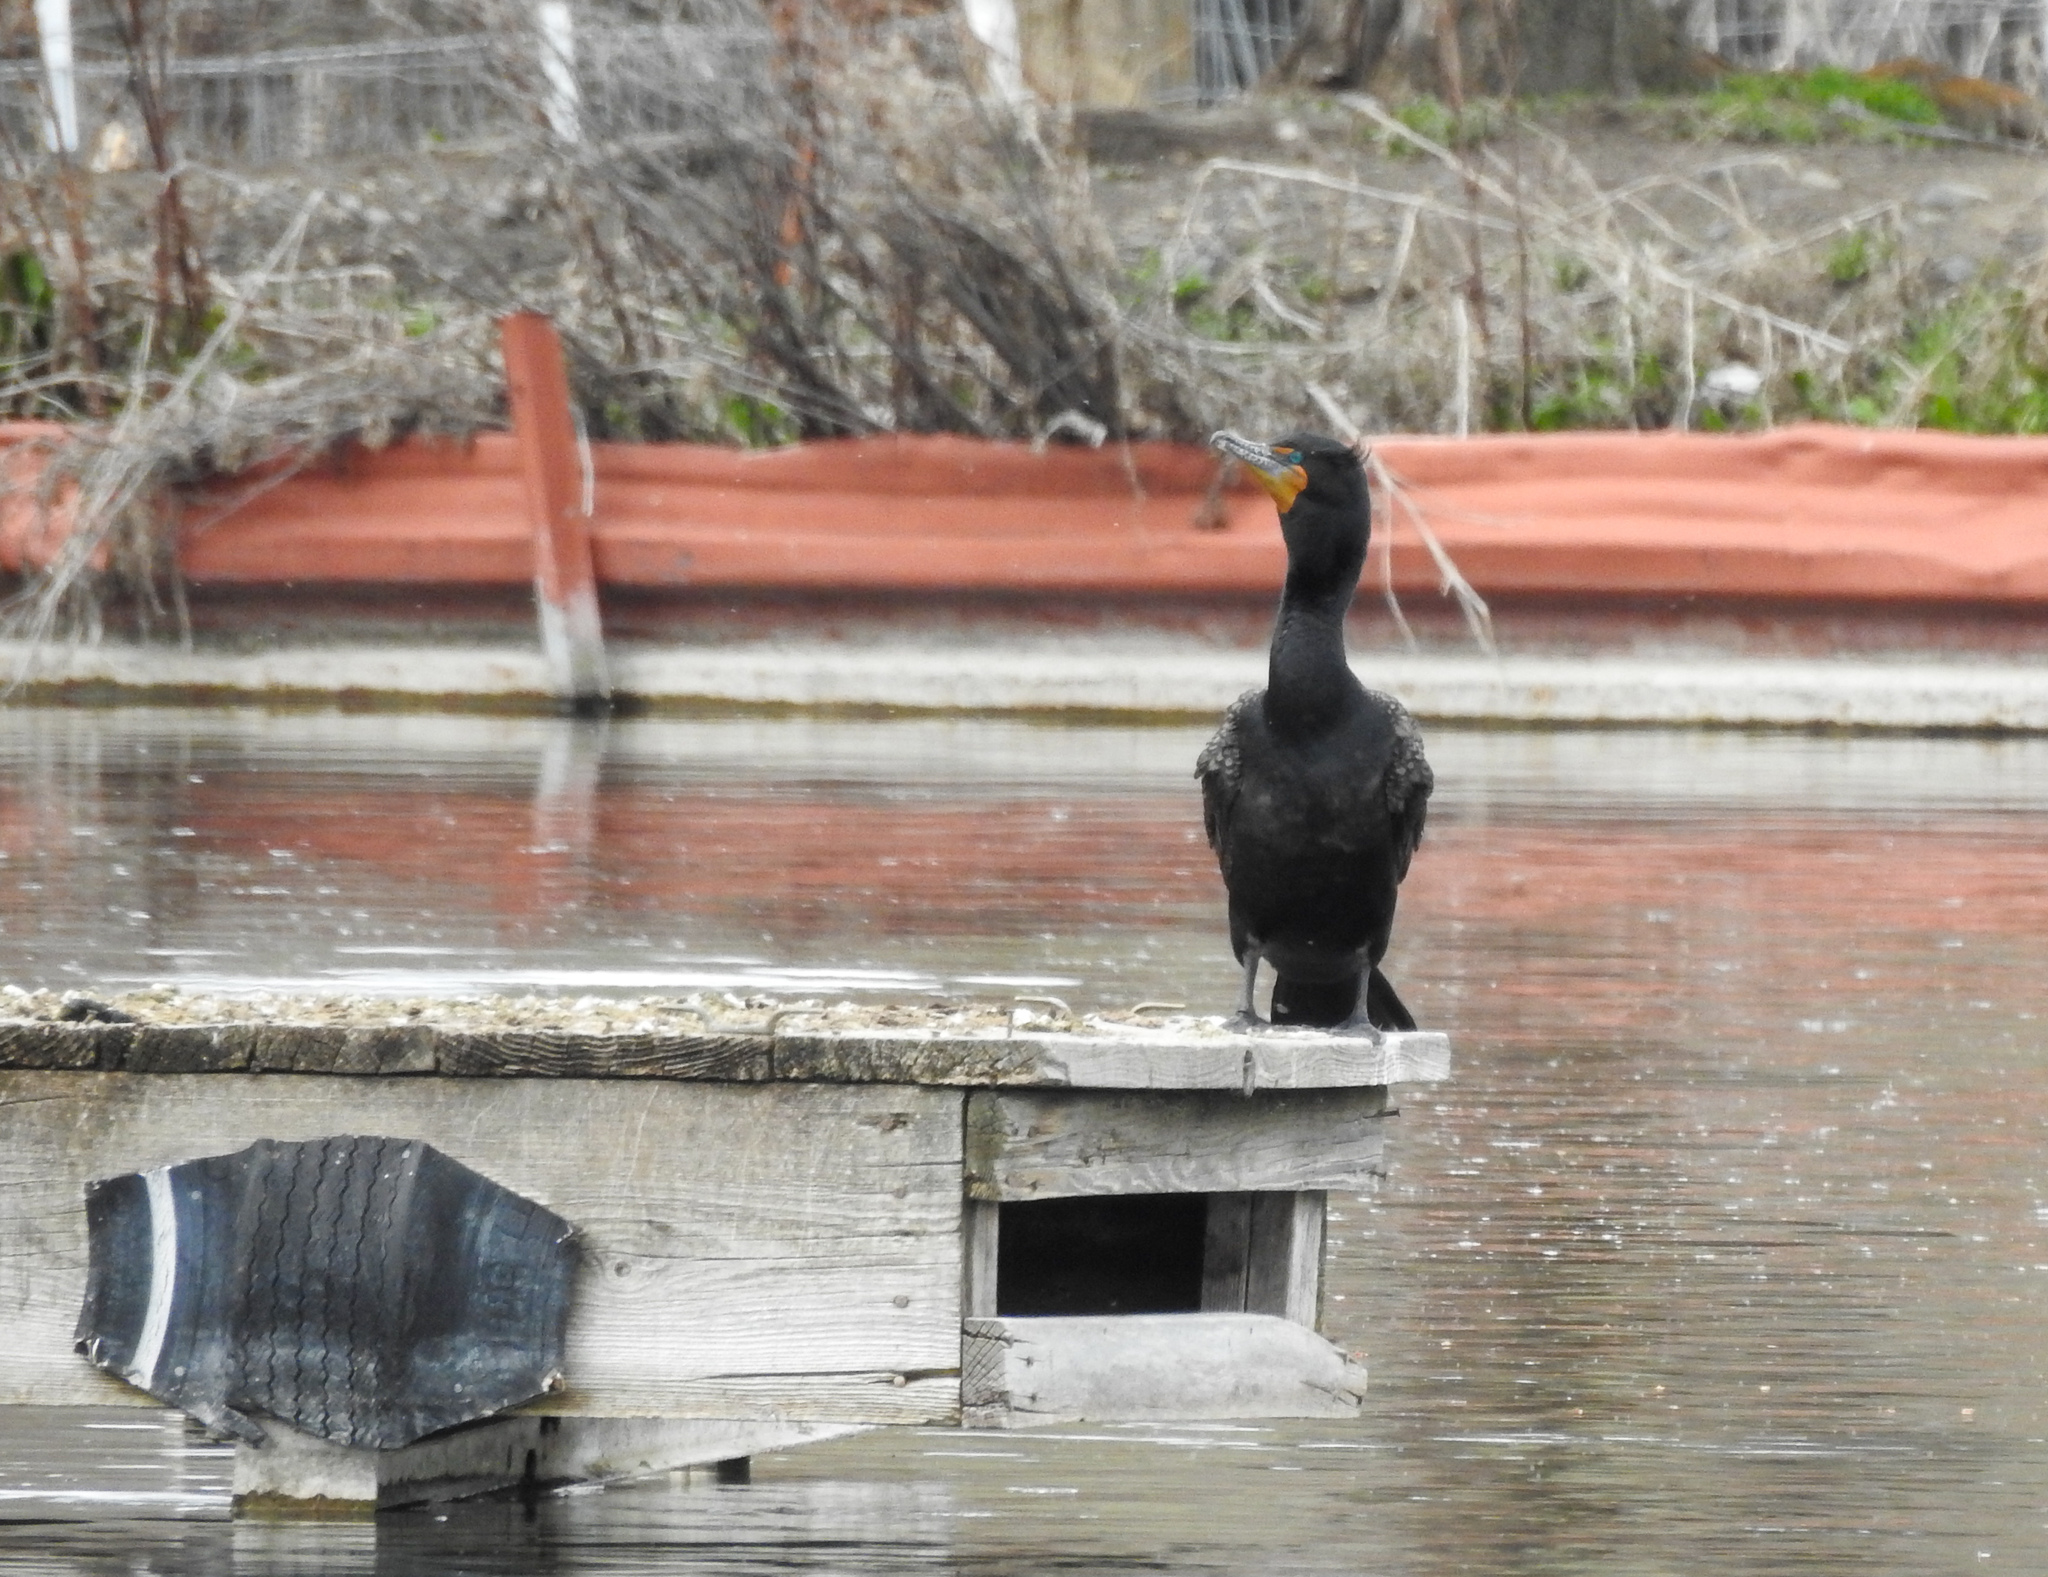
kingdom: Animalia
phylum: Chordata
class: Aves
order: Suliformes
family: Phalacrocoracidae
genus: Phalacrocorax
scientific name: Phalacrocorax auritus
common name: Double-crested cormorant
